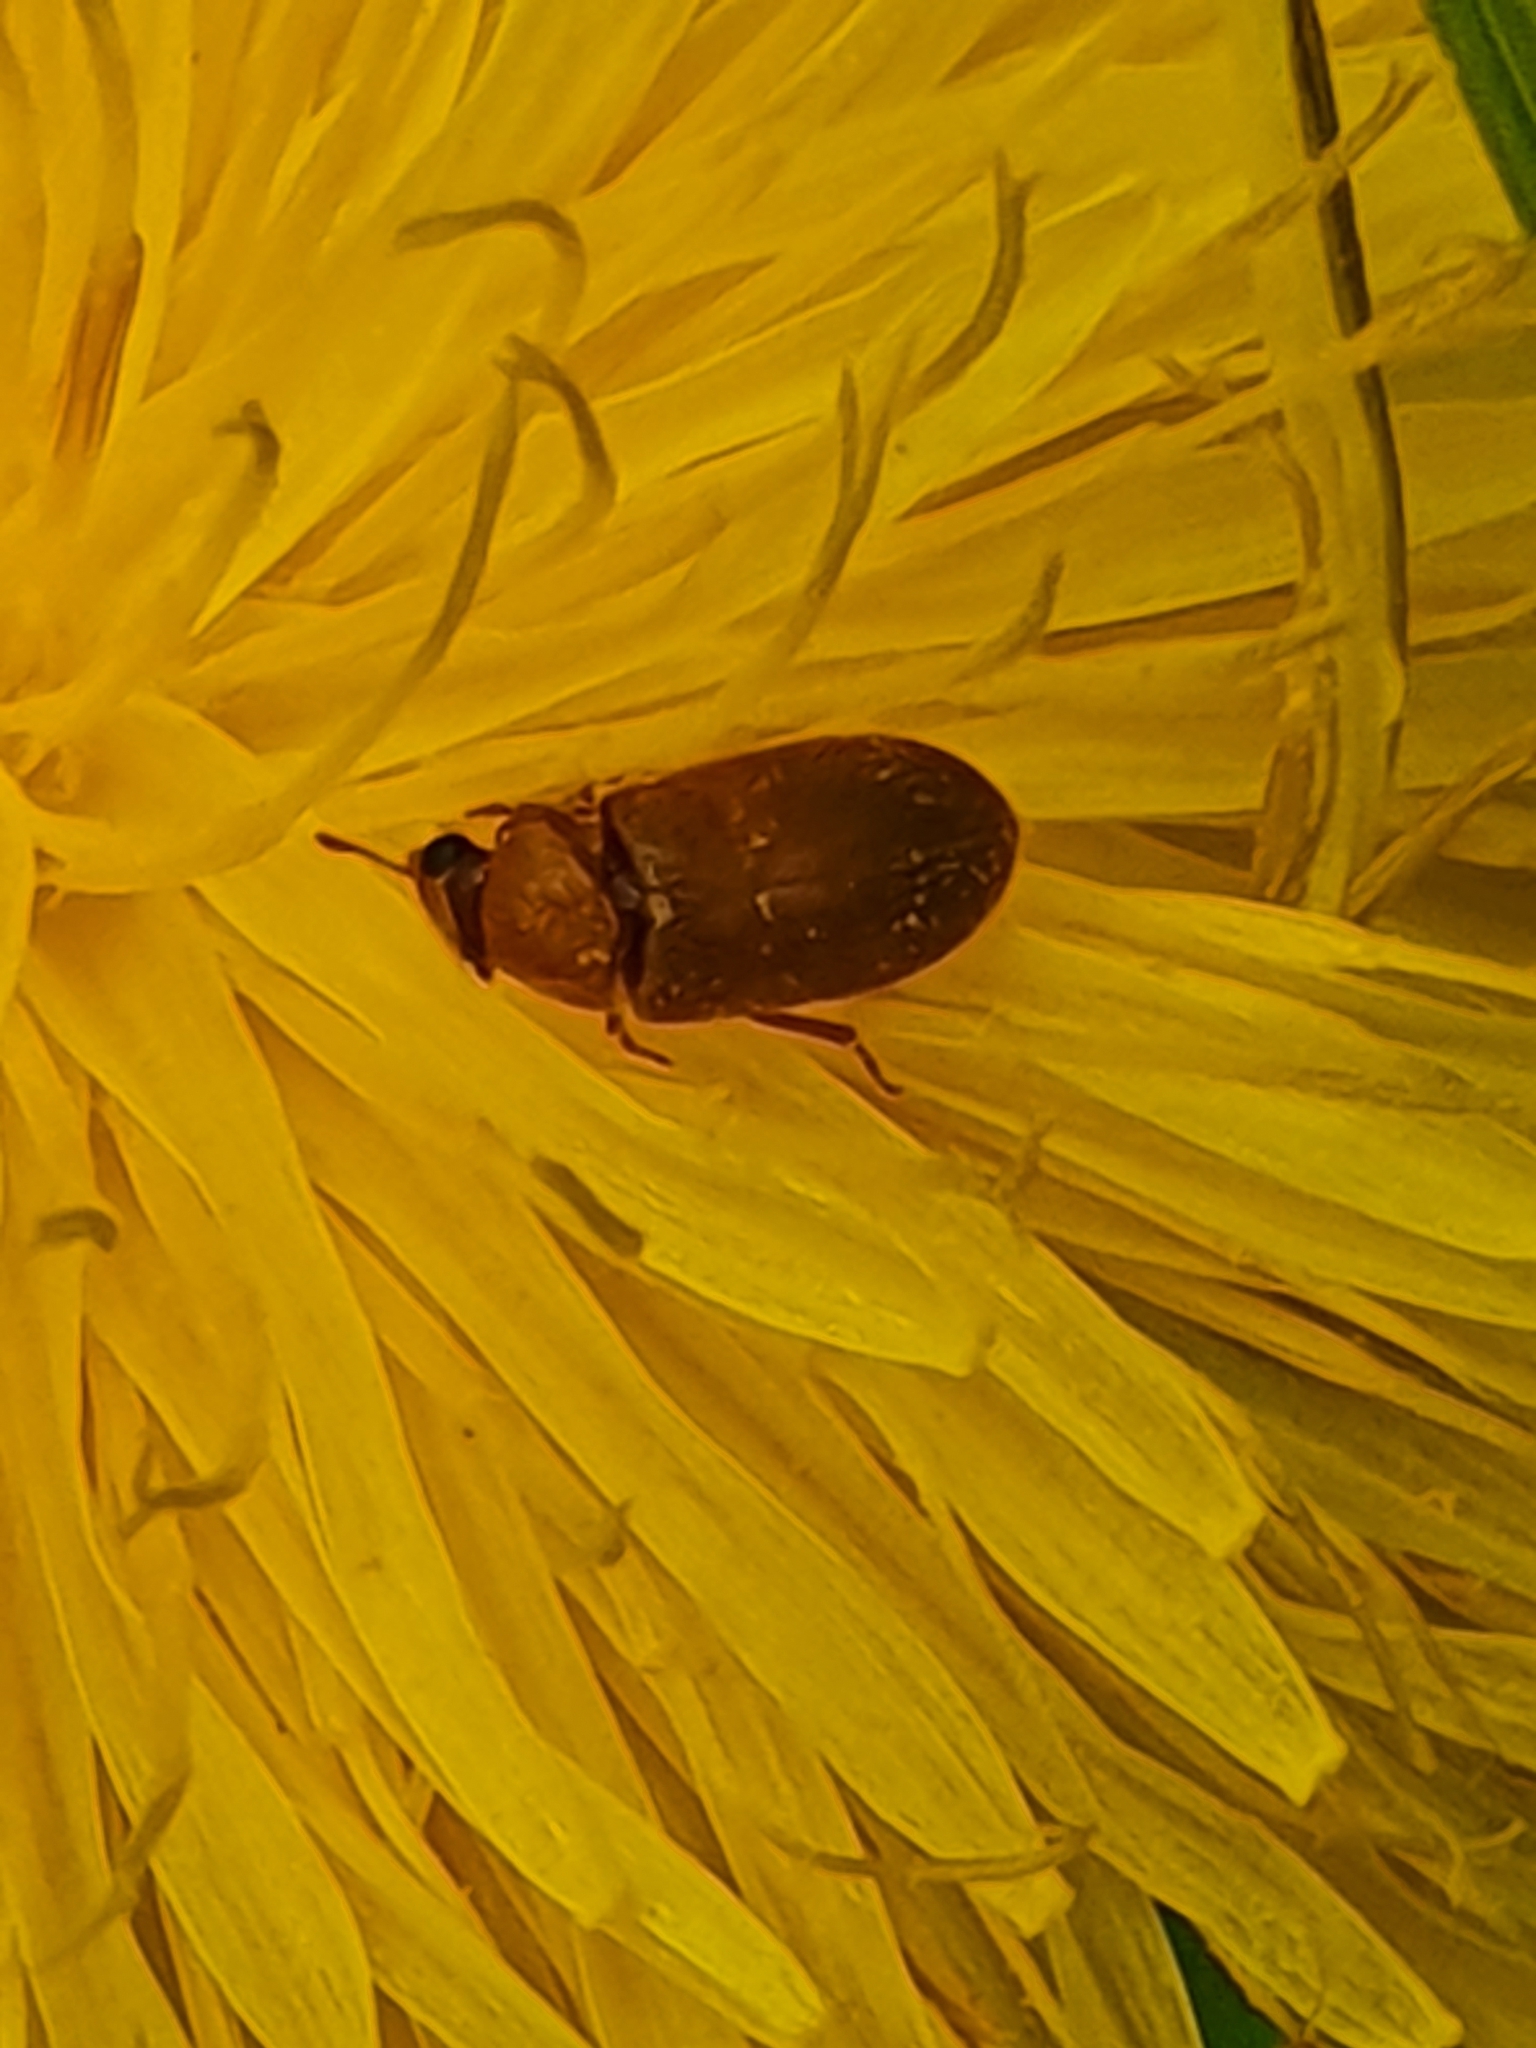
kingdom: Animalia
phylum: Arthropoda
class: Insecta
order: Coleoptera
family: Byturidae
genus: Byturus
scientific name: Byturus ochraceus
